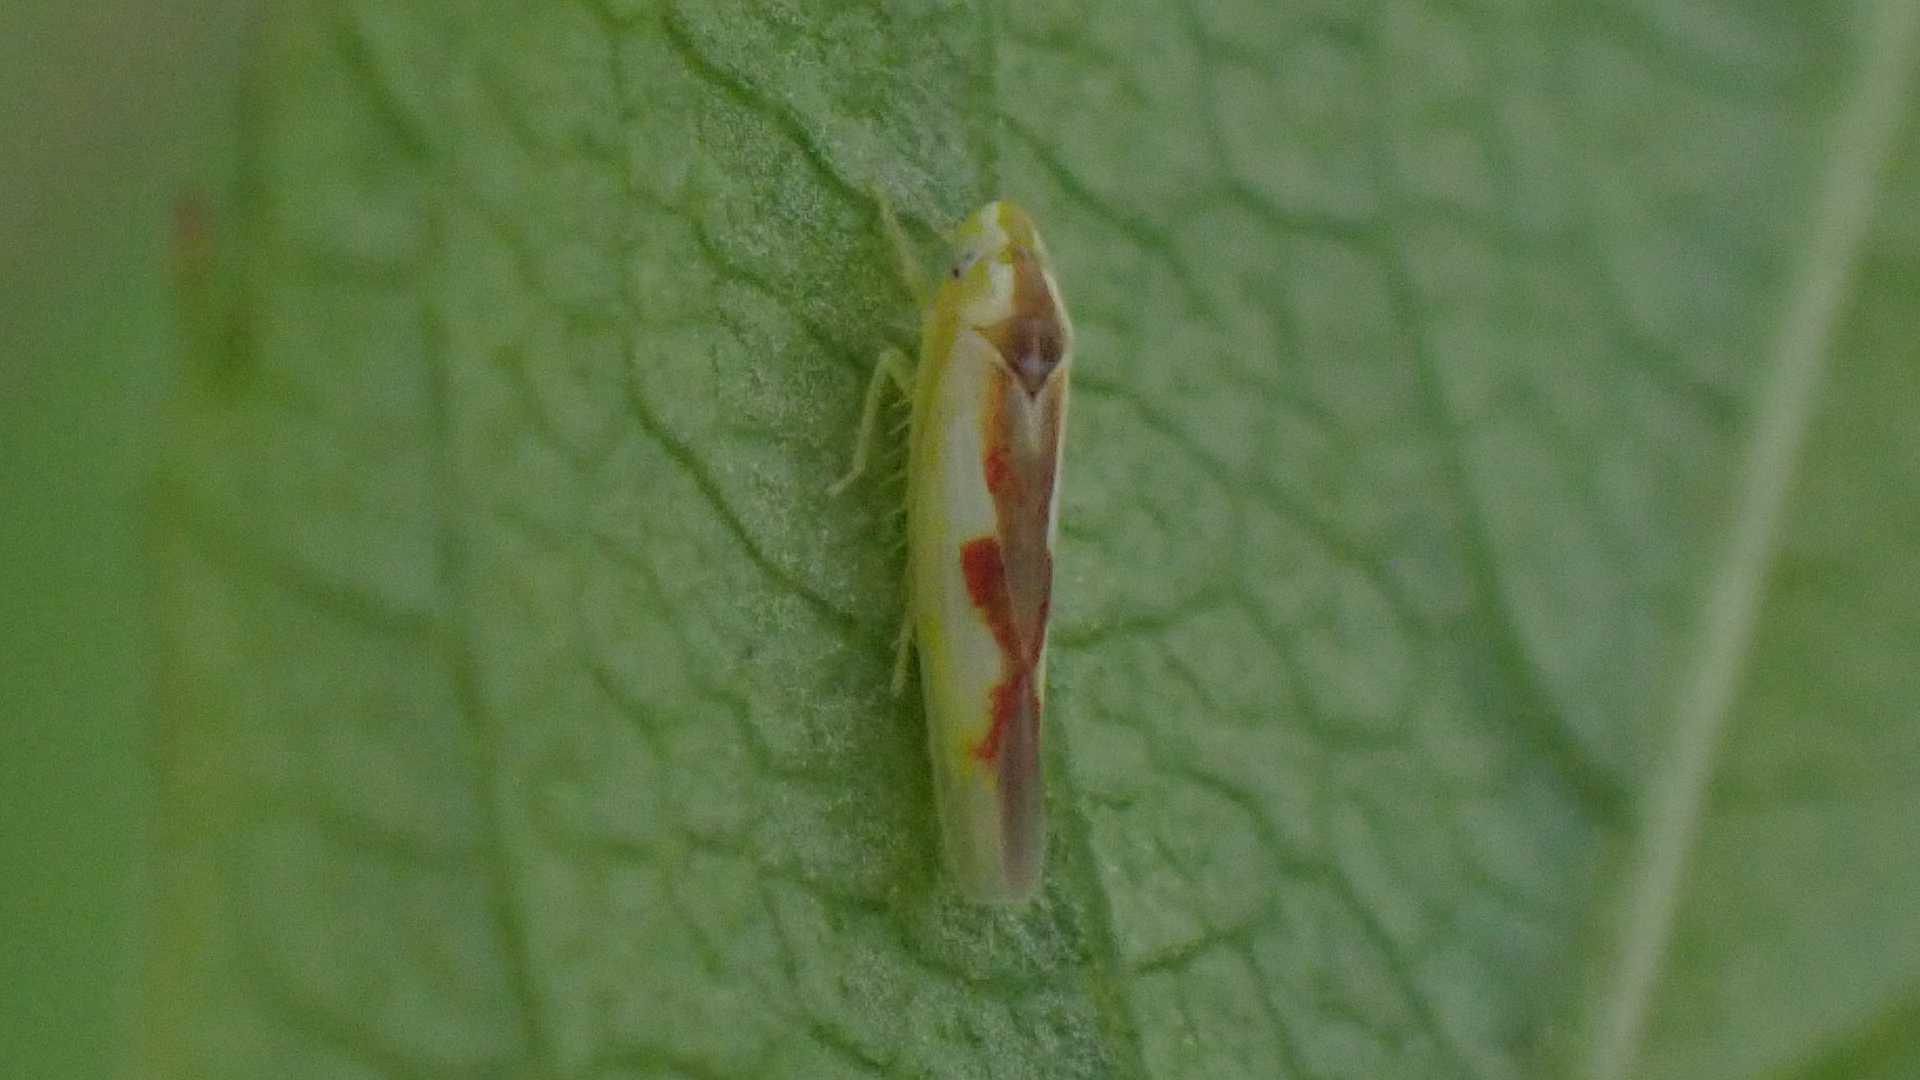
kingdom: Animalia
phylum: Arthropoda
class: Insecta
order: Hemiptera
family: Cicadellidae
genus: Zygina
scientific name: Zygina angusta
